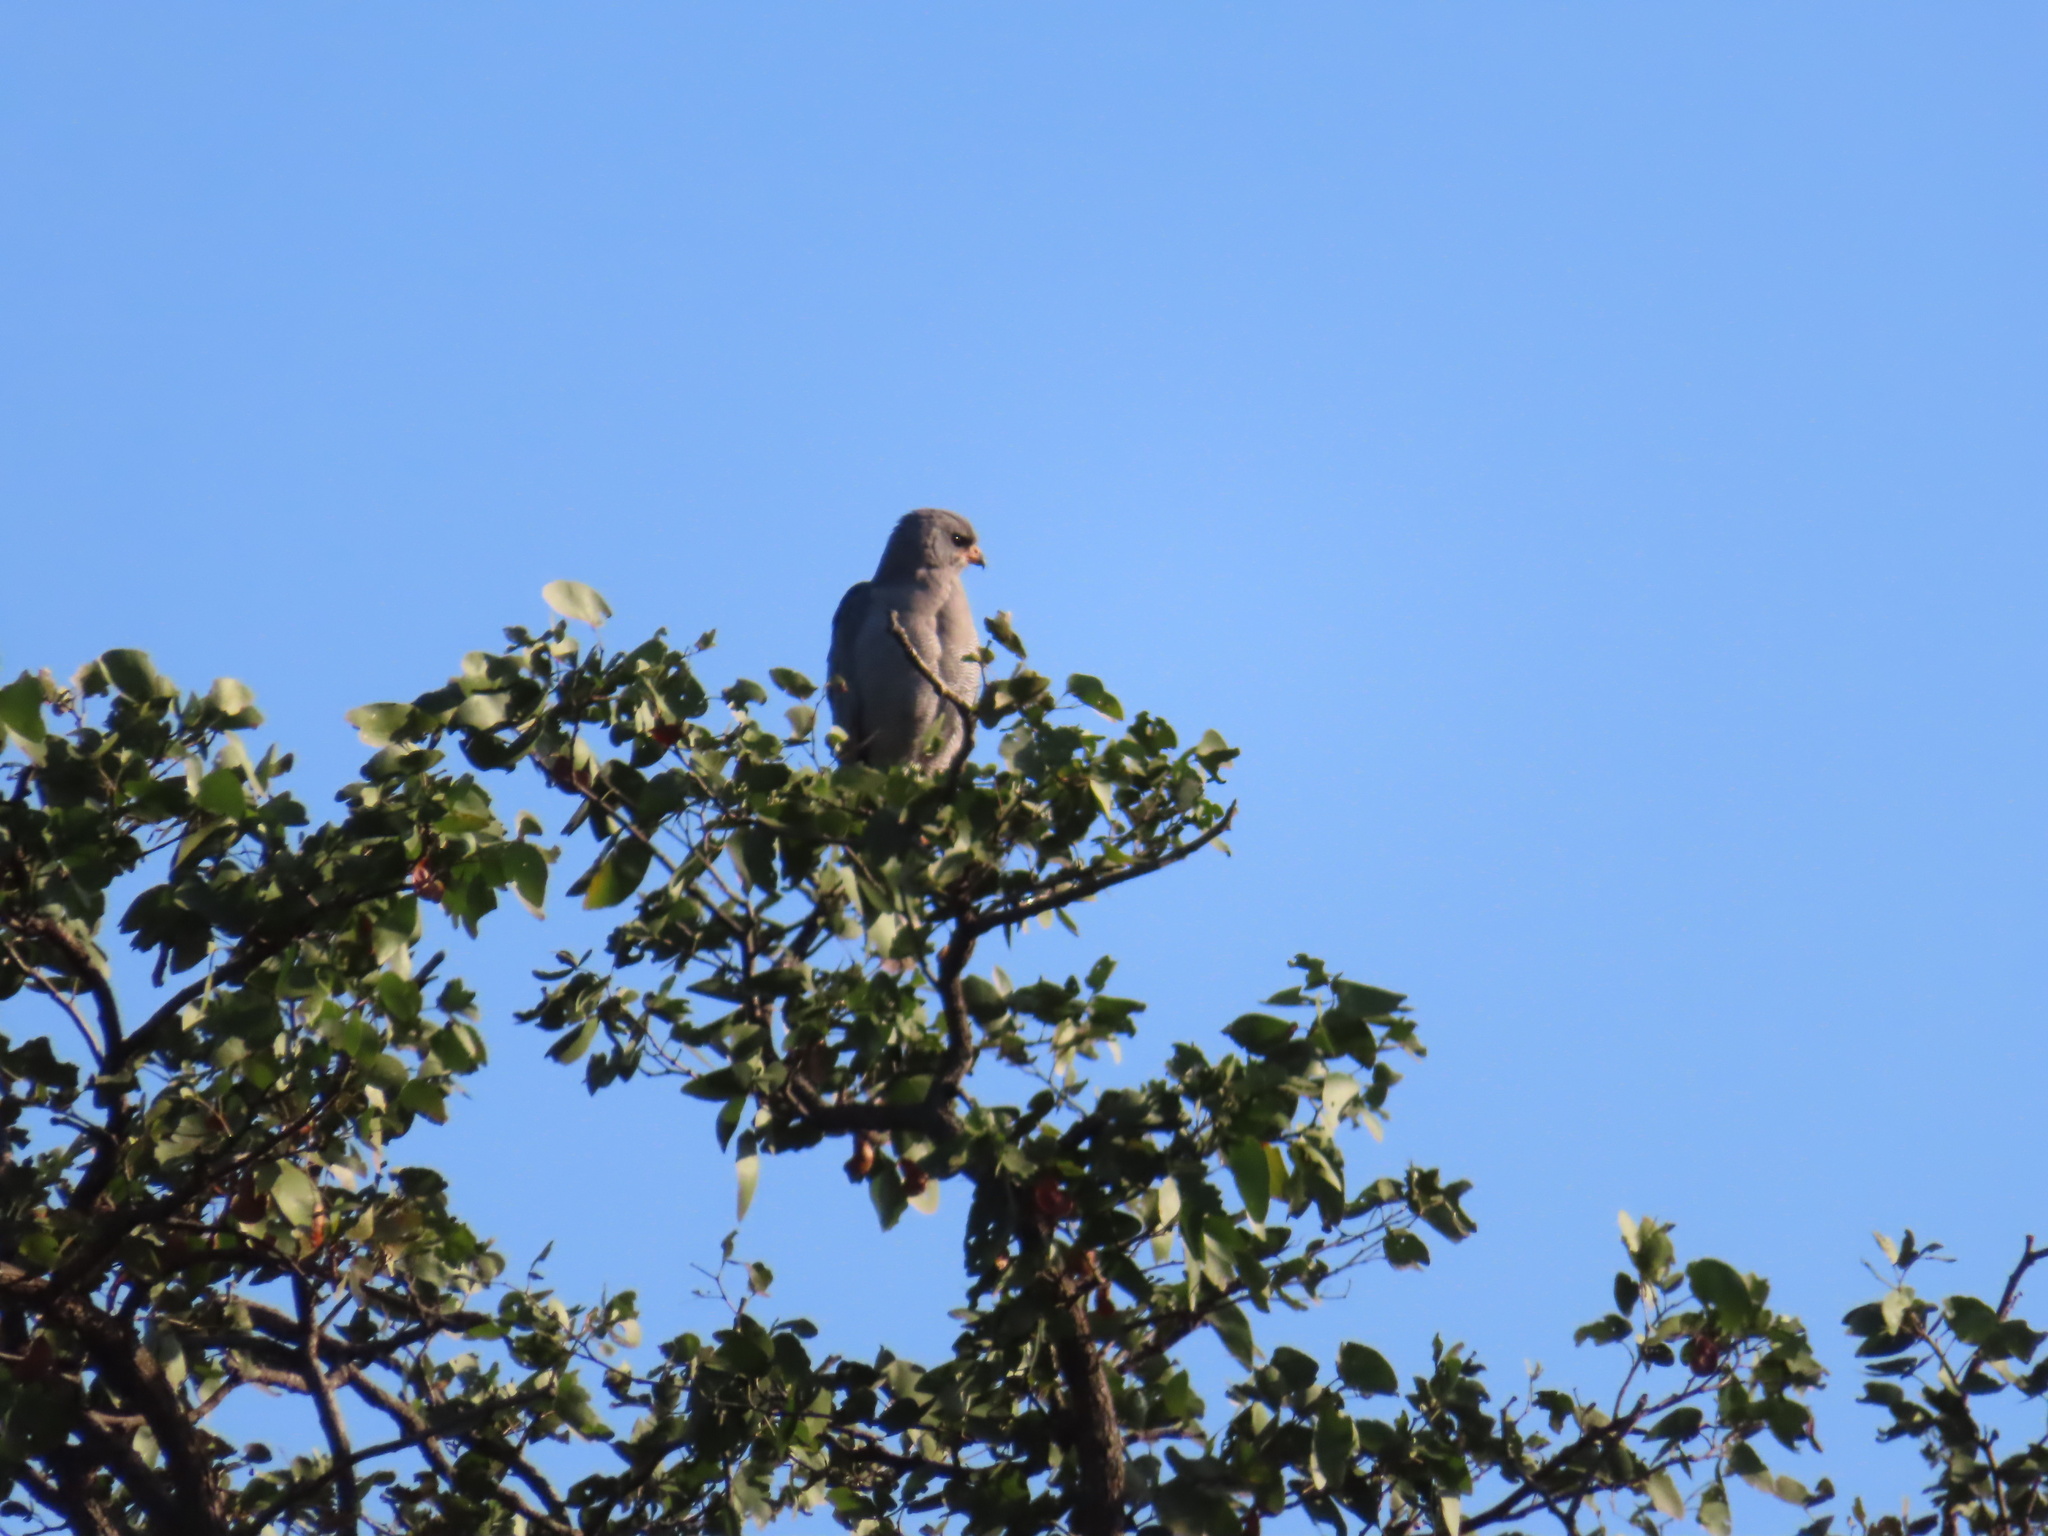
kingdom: Animalia
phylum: Chordata
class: Aves
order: Accipitriformes
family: Accipitridae
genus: Melierax
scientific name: Melierax metabates
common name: Dark chanting-goshawk
